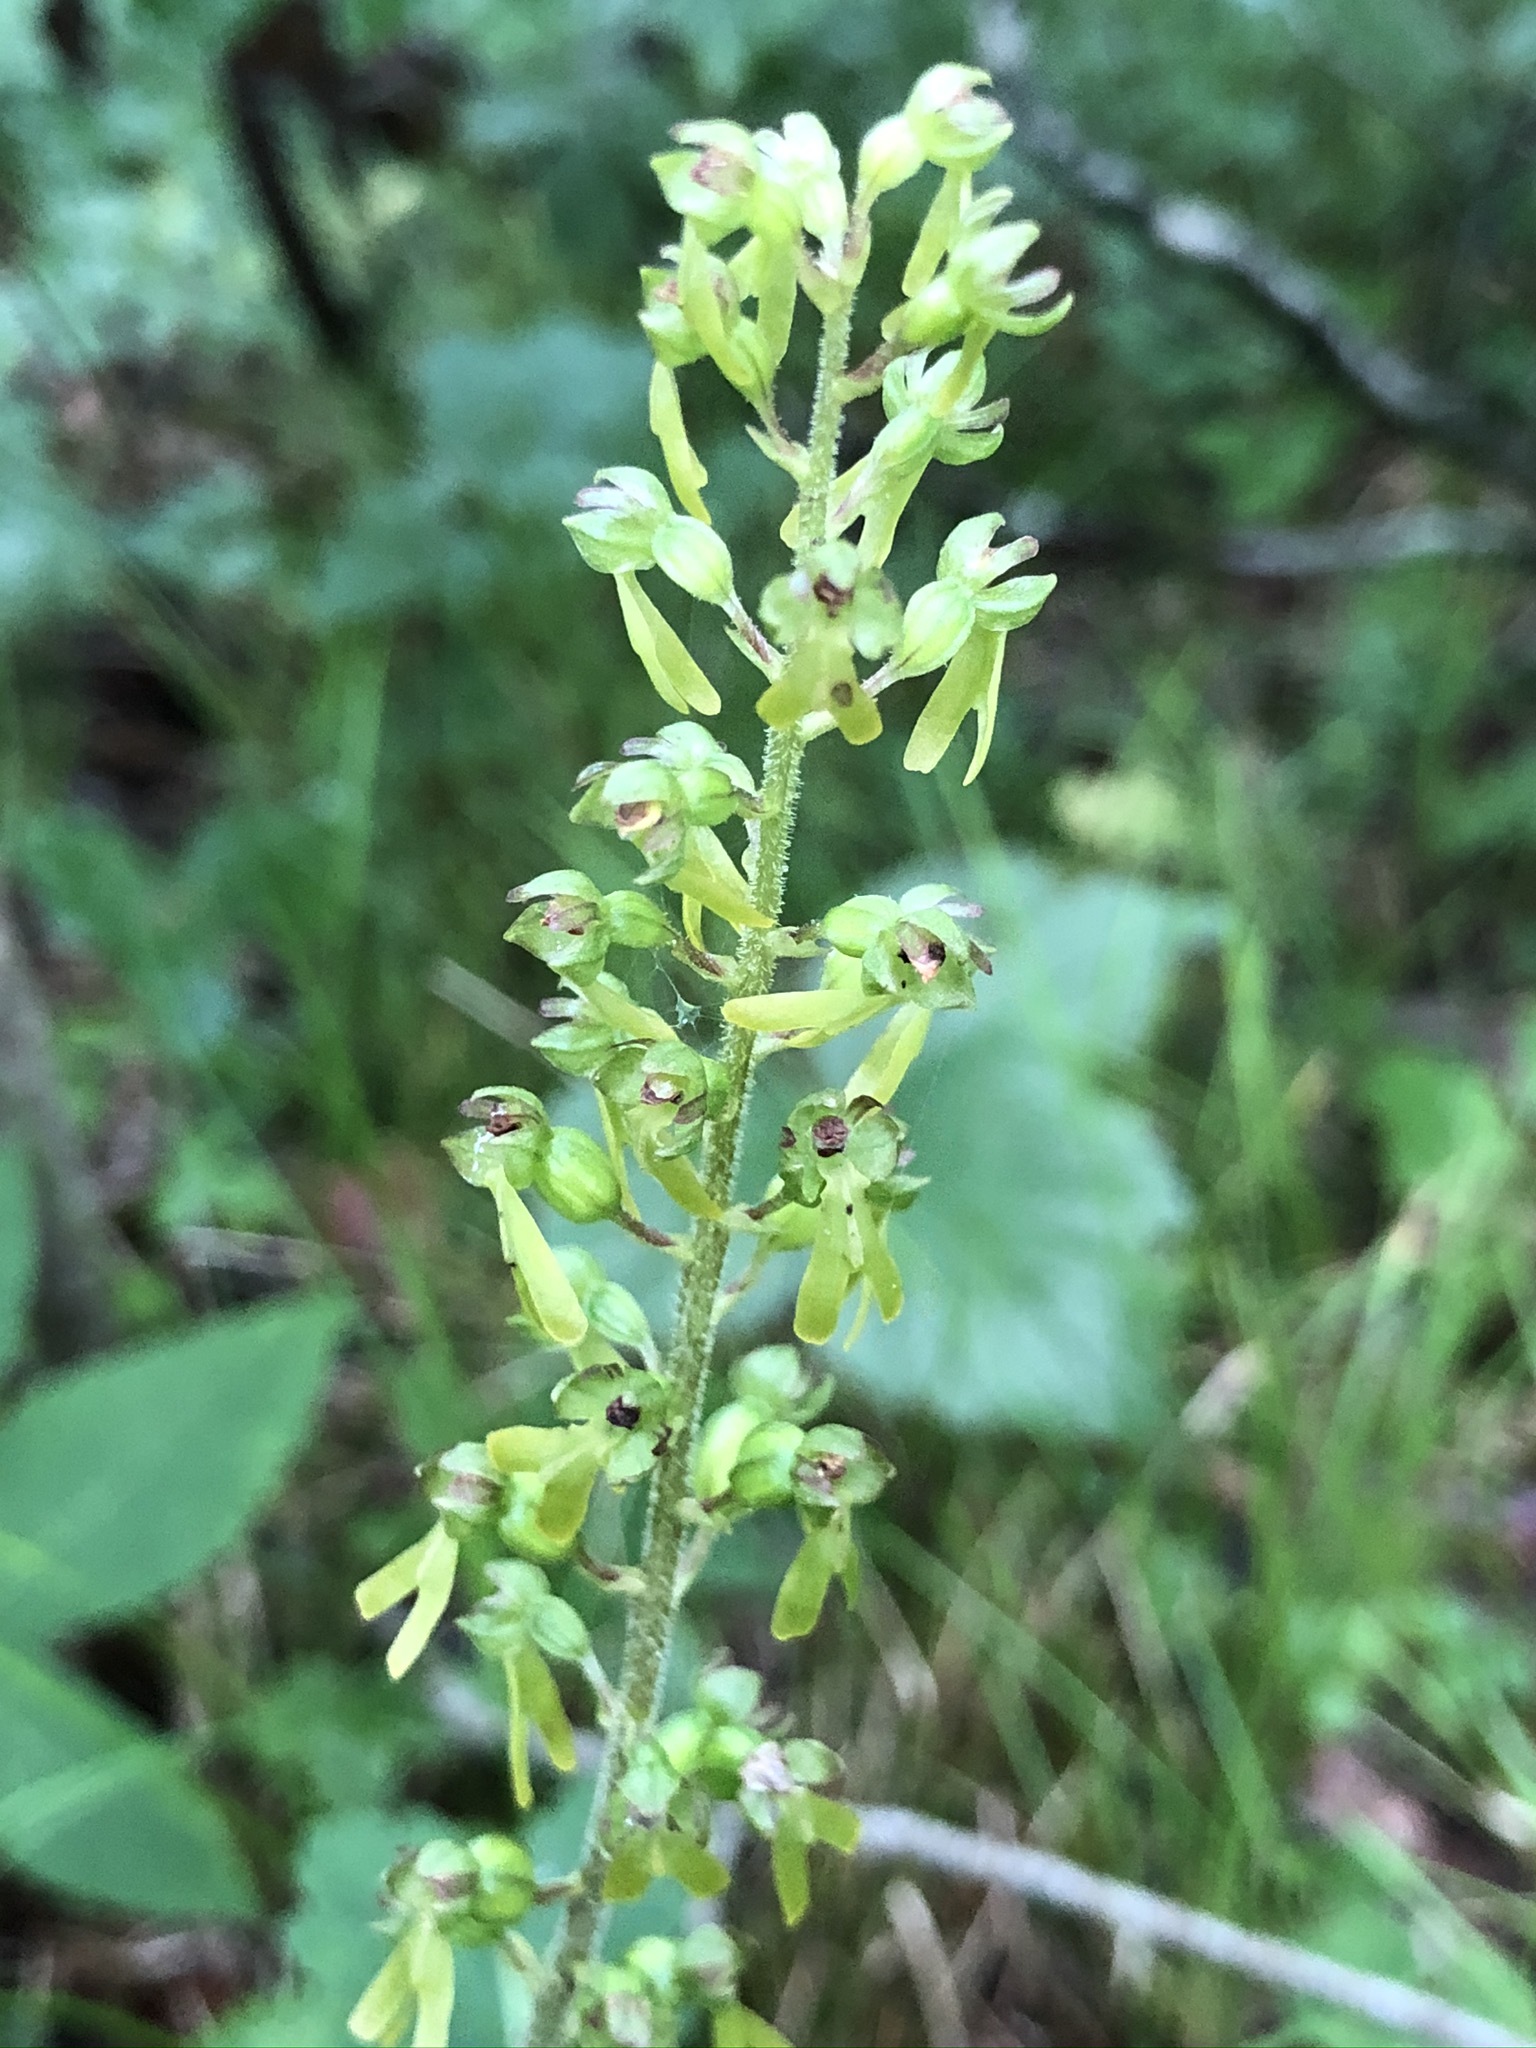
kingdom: Plantae
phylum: Tracheophyta
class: Liliopsida
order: Asparagales
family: Orchidaceae
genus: Neottia
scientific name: Neottia ovata
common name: Common twayblade
